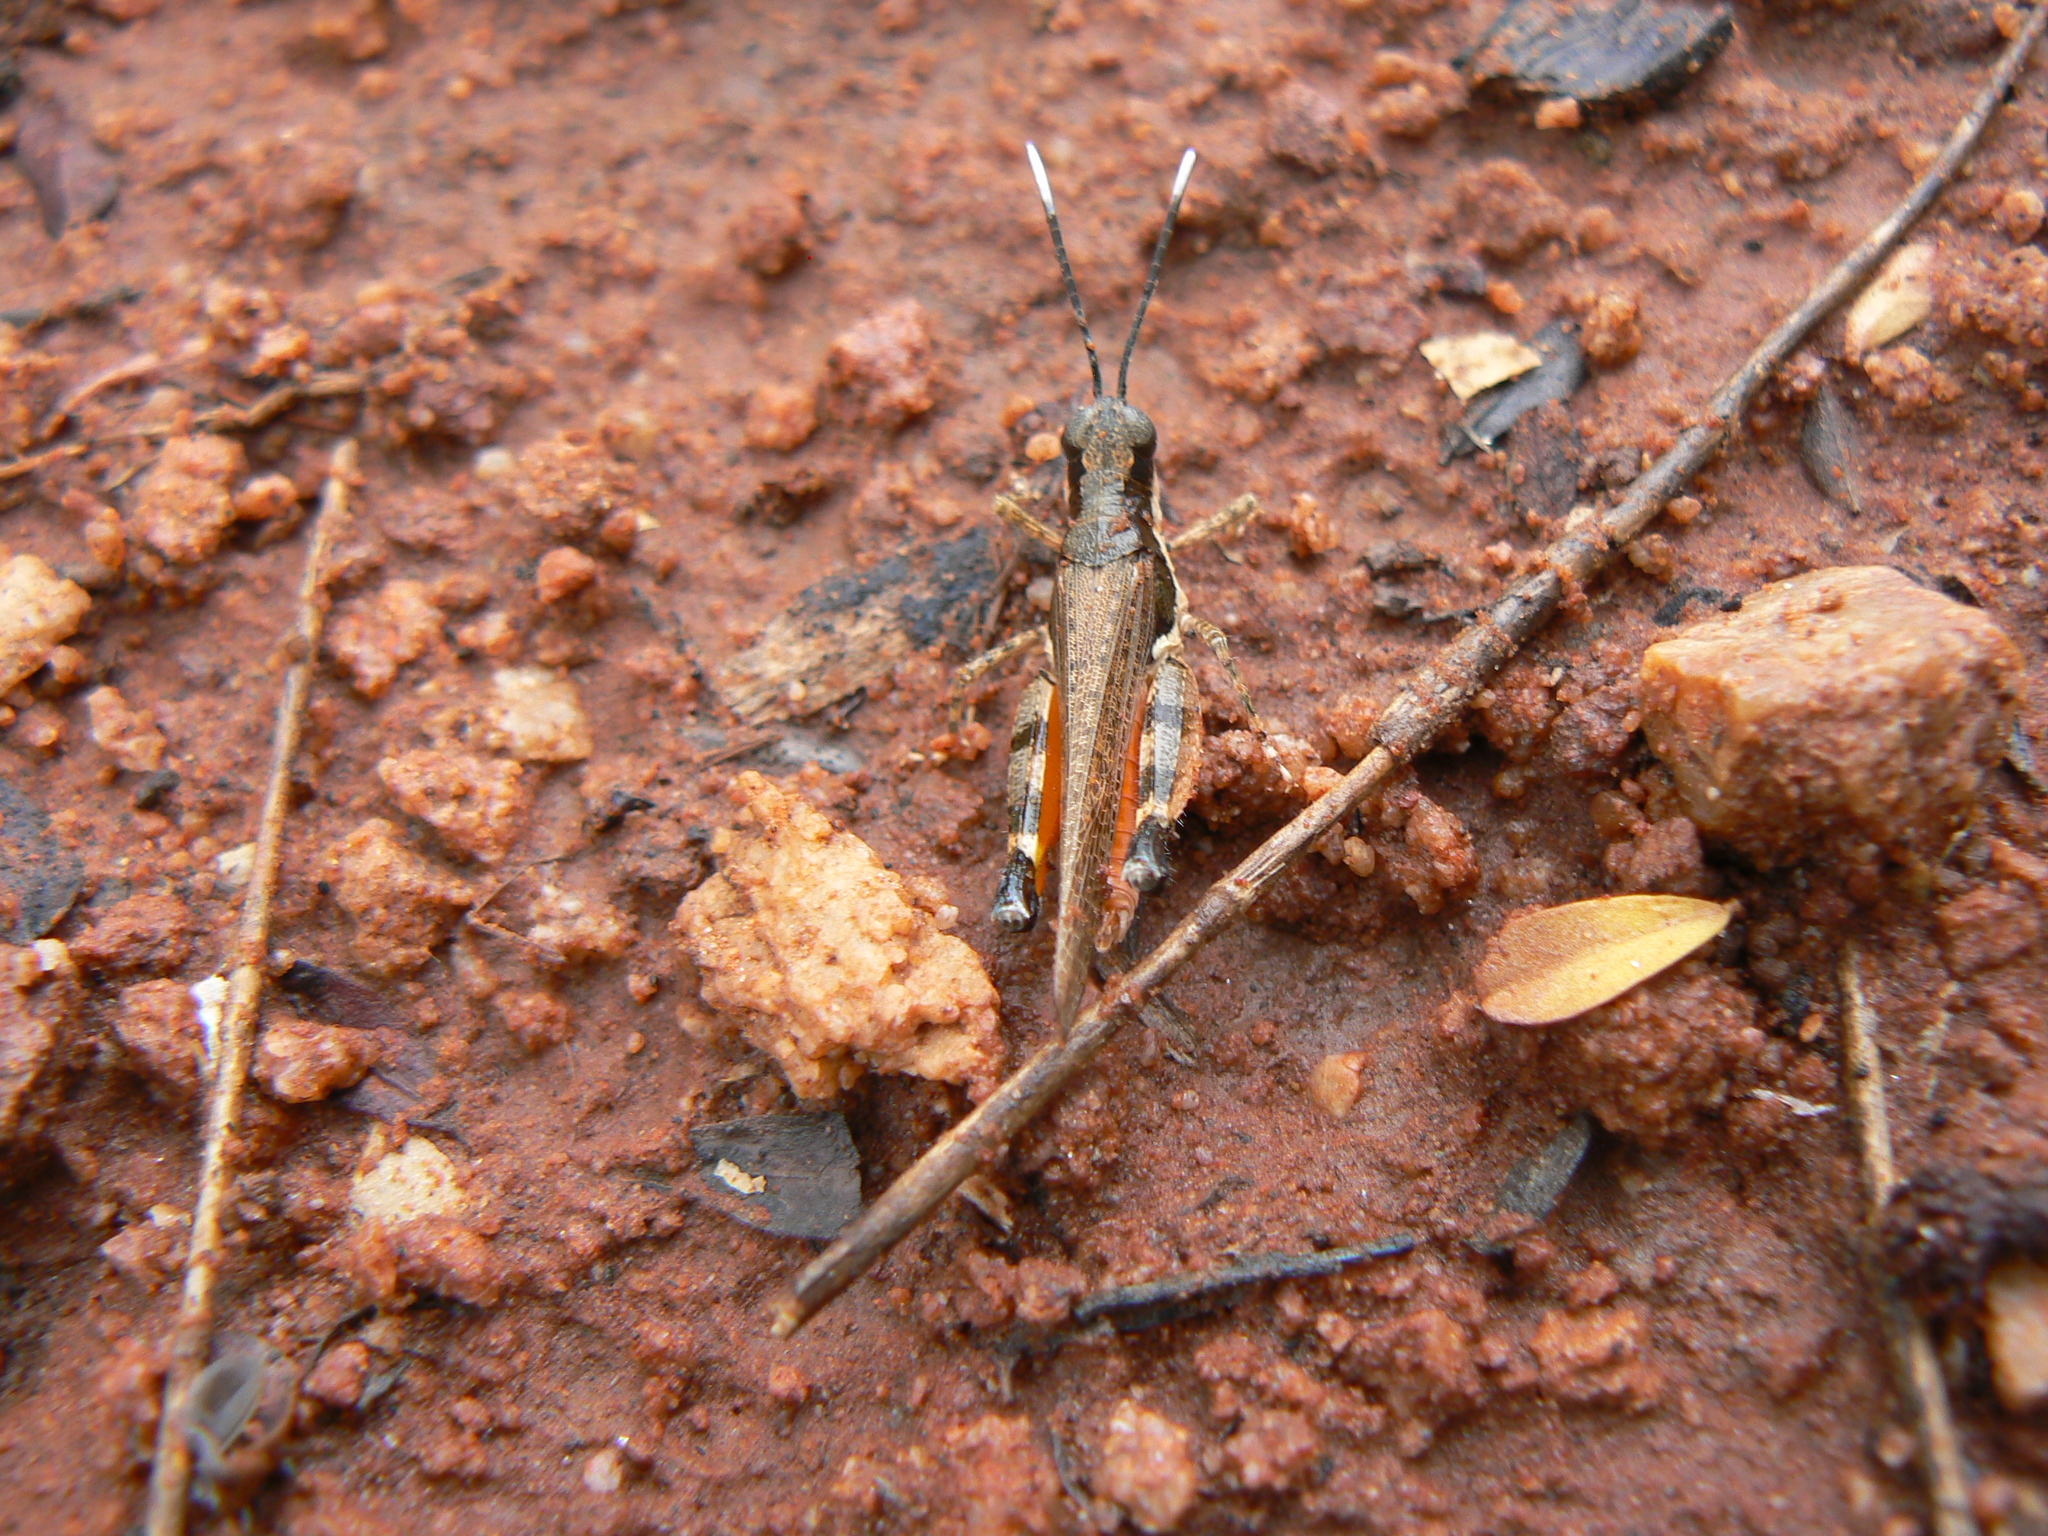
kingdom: Animalia
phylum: Arthropoda
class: Insecta
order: Orthoptera
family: Acrididae
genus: Perbellia
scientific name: Perbellia picta
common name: White-tipped perbellia
